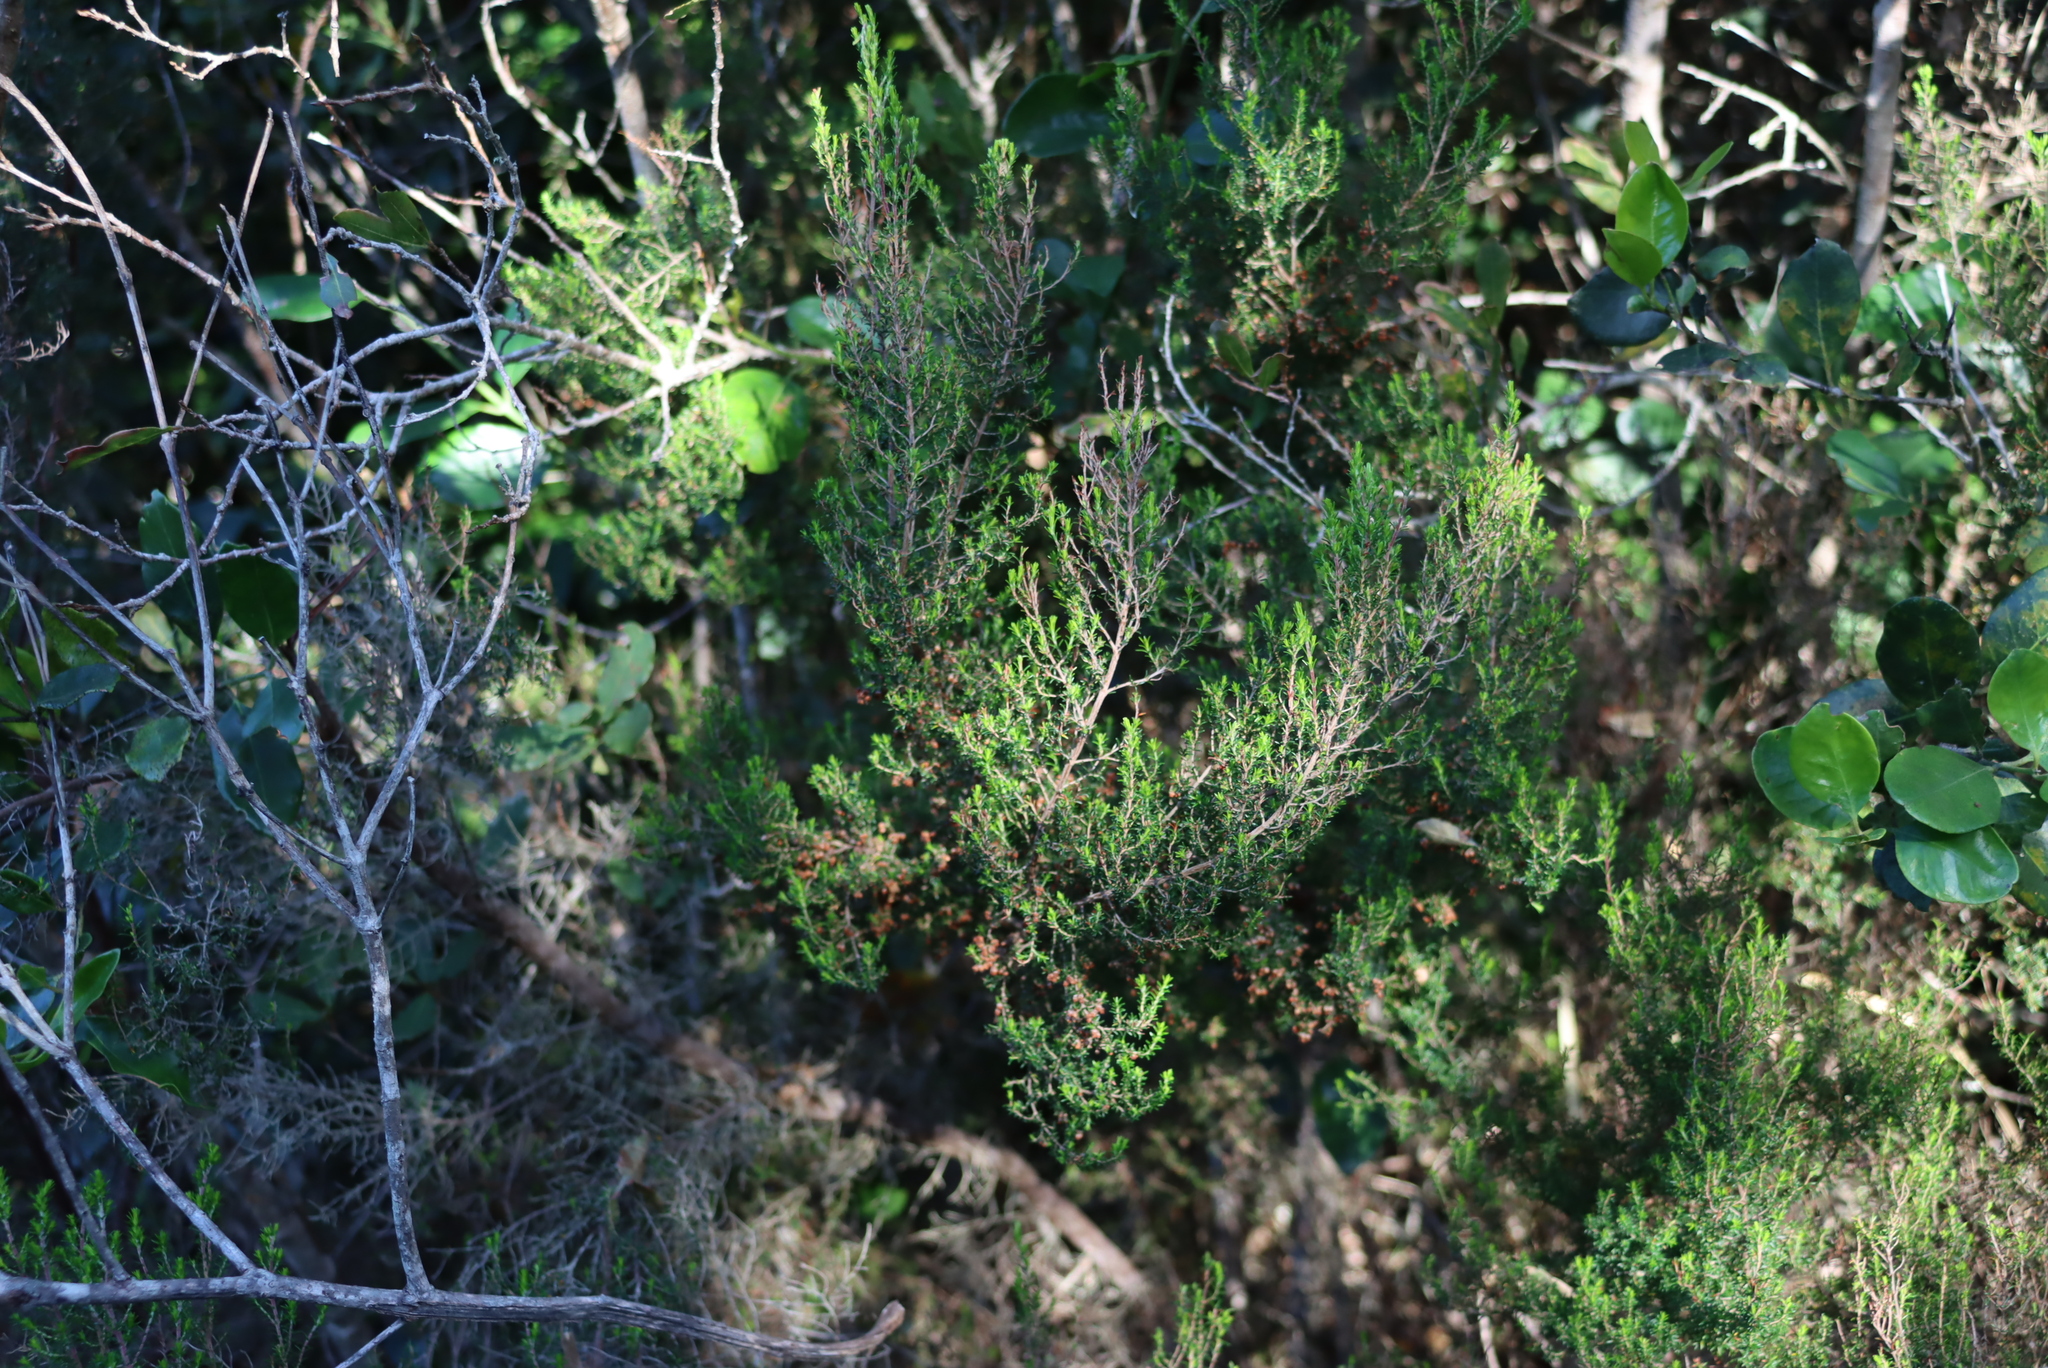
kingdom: Plantae
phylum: Tracheophyta
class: Magnoliopsida
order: Ericales
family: Ericaceae
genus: Erica
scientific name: Erica sparsa
